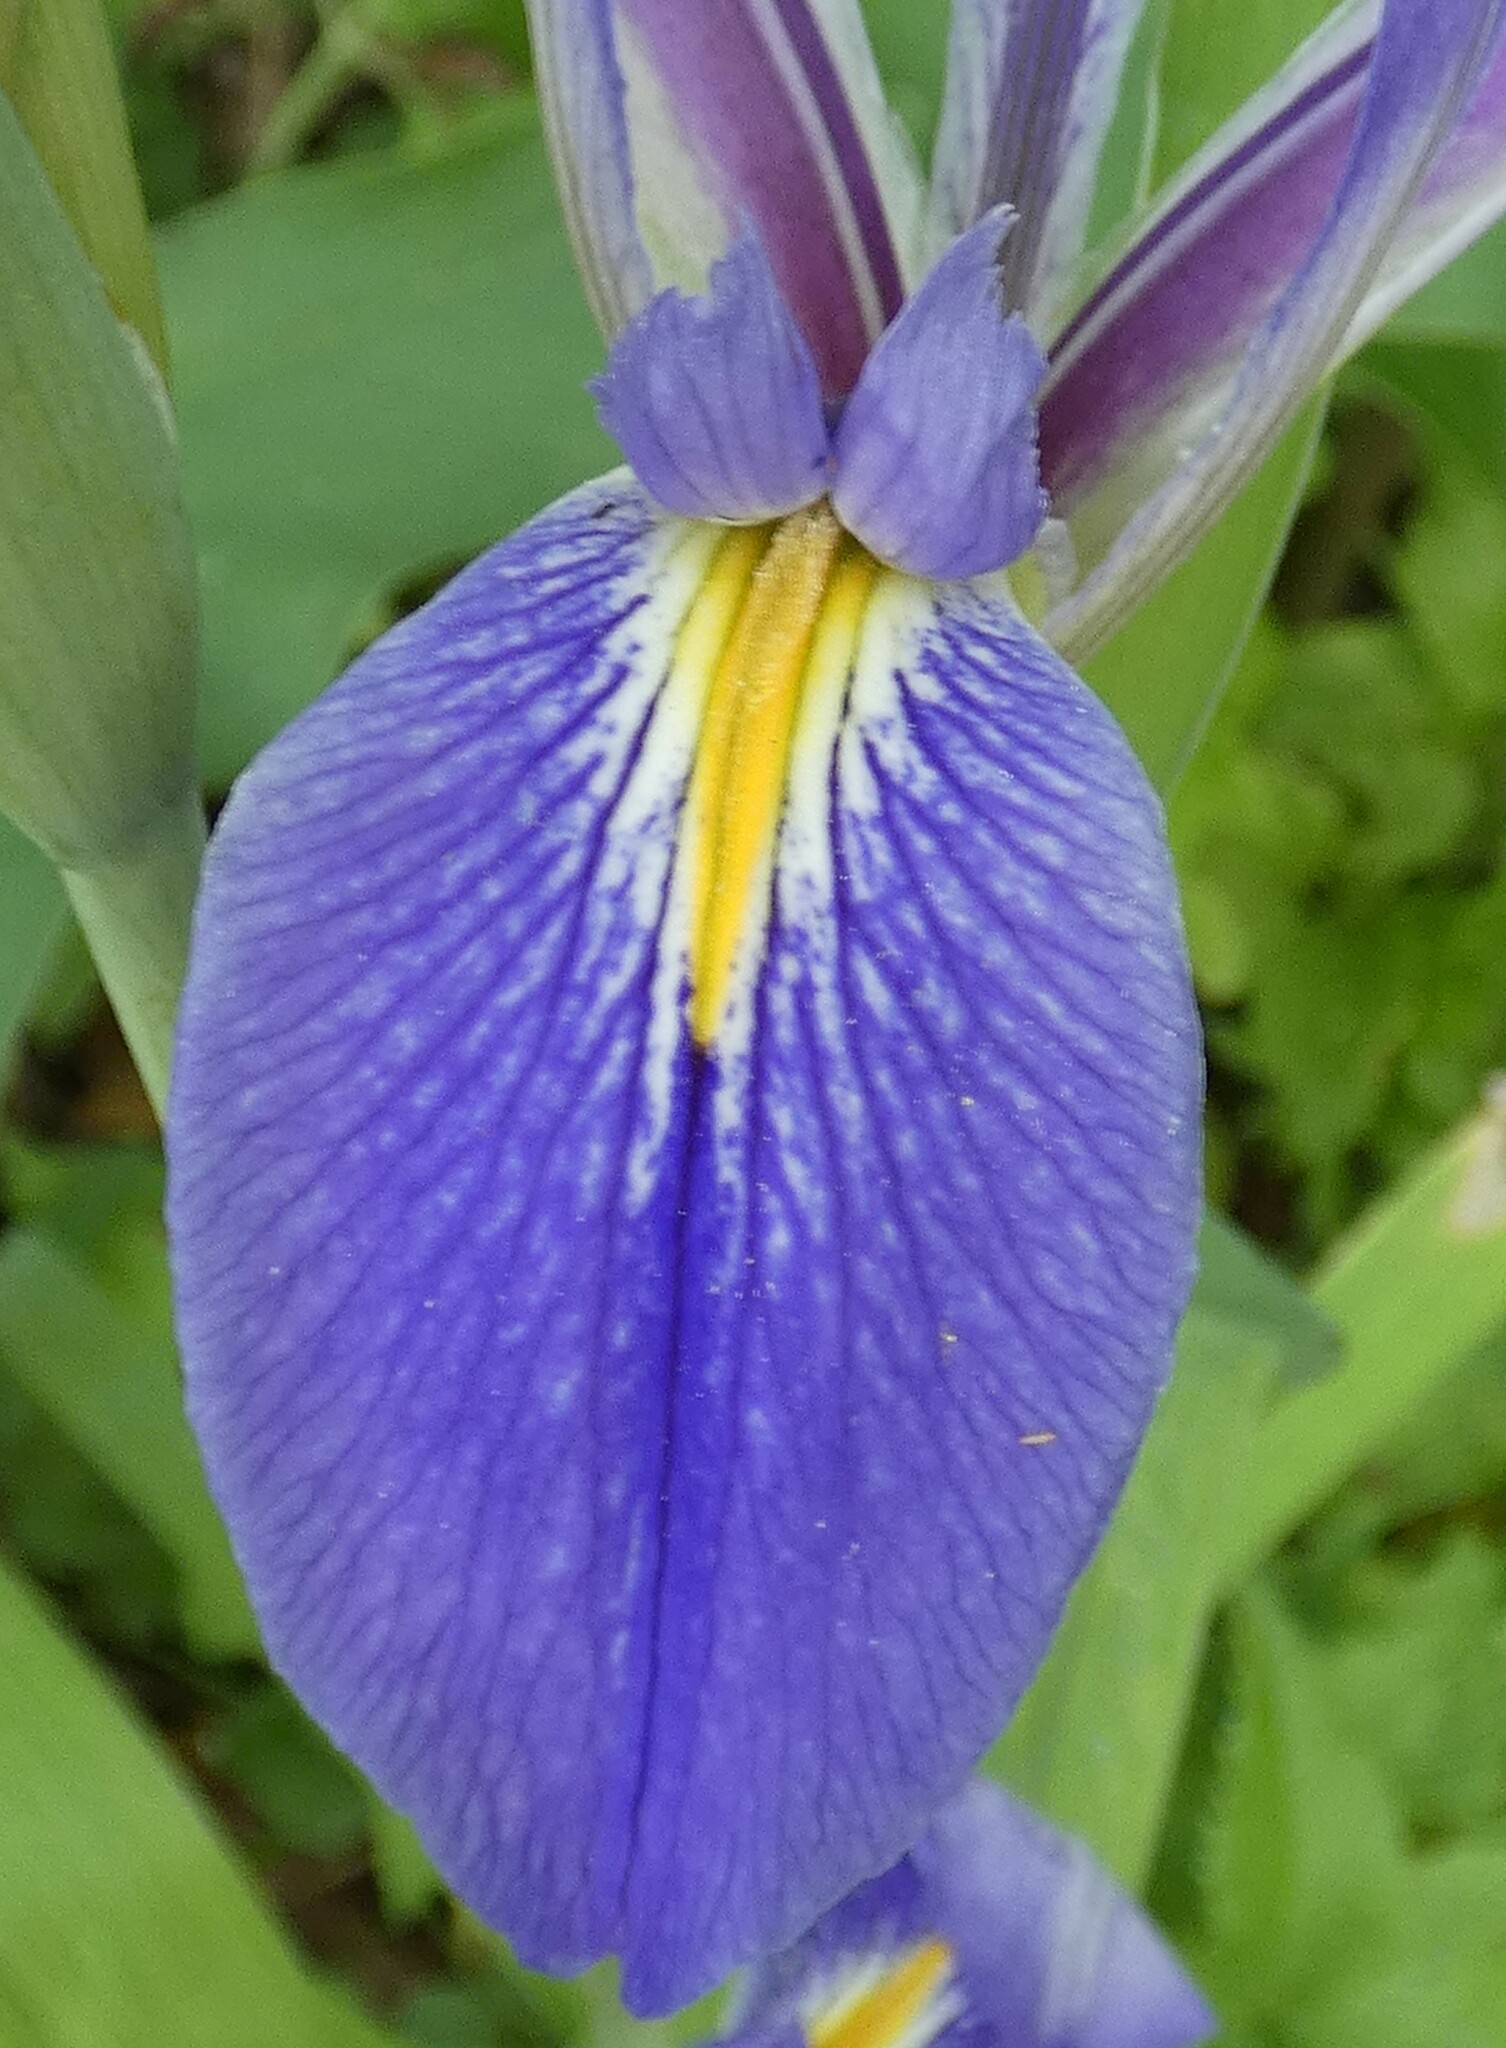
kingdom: Plantae
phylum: Tracheophyta
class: Liliopsida
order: Asparagales
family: Iridaceae
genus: Iris
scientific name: Iris savannarum
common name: Prairie iris
